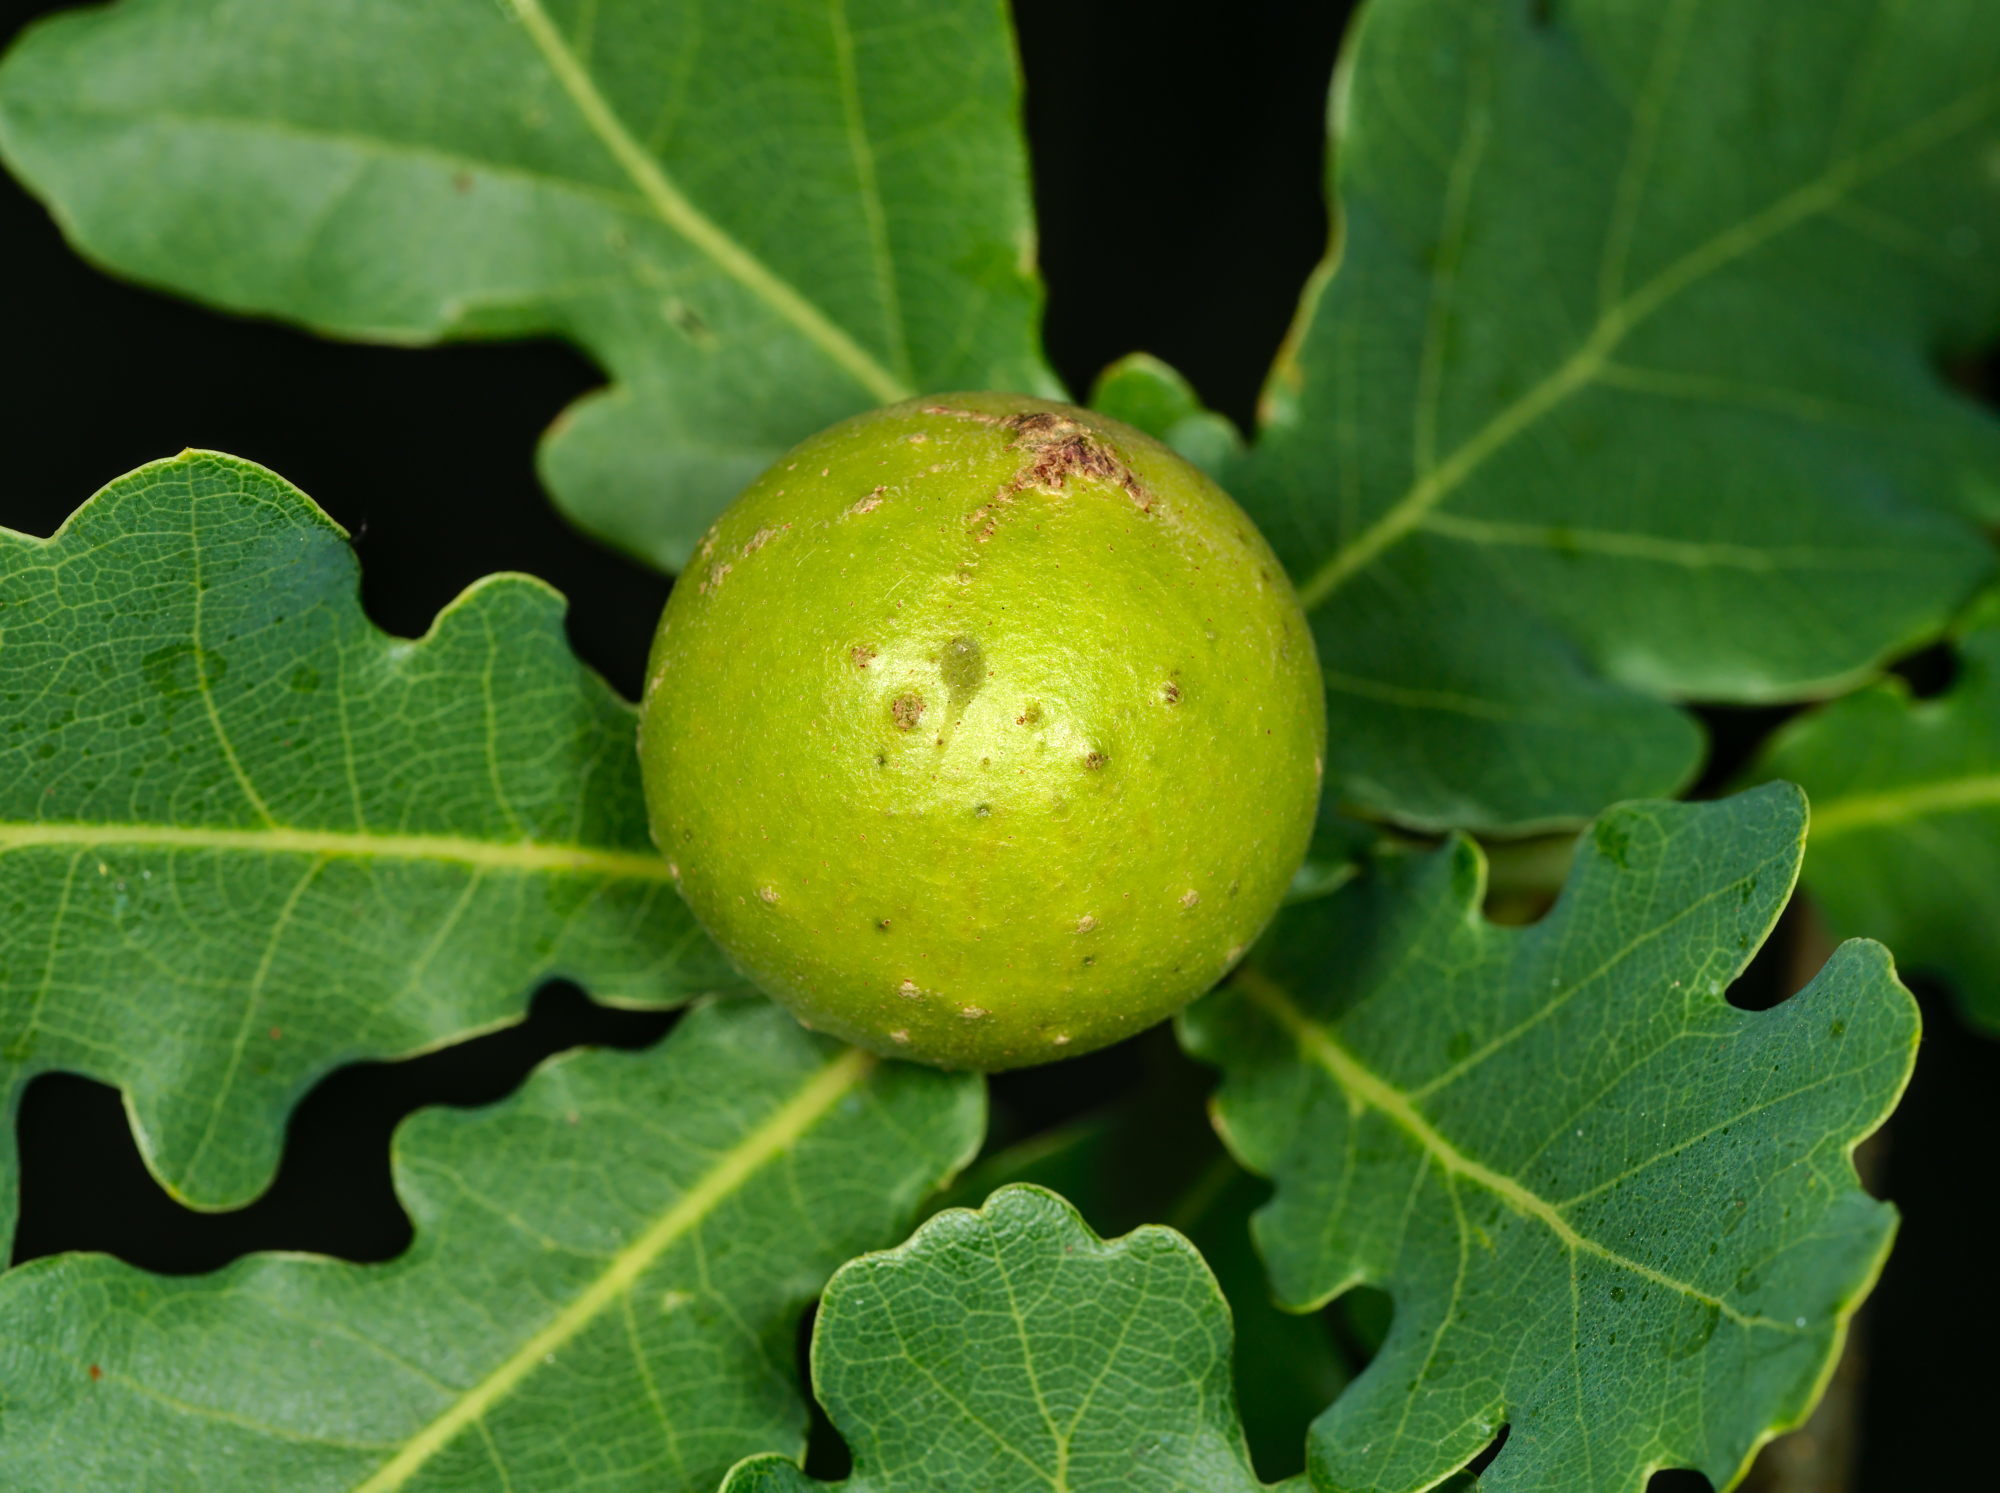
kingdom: Animalia
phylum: Arthropoda
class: Insecta
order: Hymenoptera
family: Cynipidae
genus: Andricus
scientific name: Andricus kollari
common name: Marble gall
